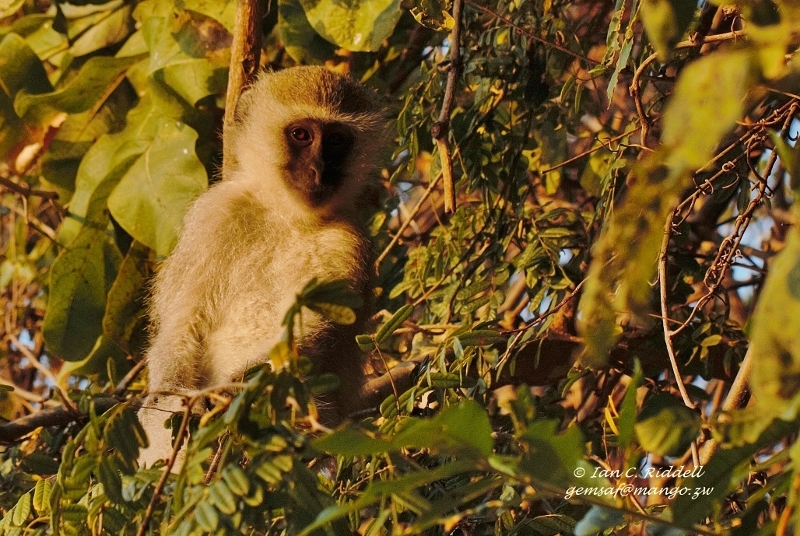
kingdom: Animalia
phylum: Chordata
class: Mammalia
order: Primates
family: Cercopithecidae
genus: Chlorocebus
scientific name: Chlorocebus pygerythrus
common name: Vervet monkey
